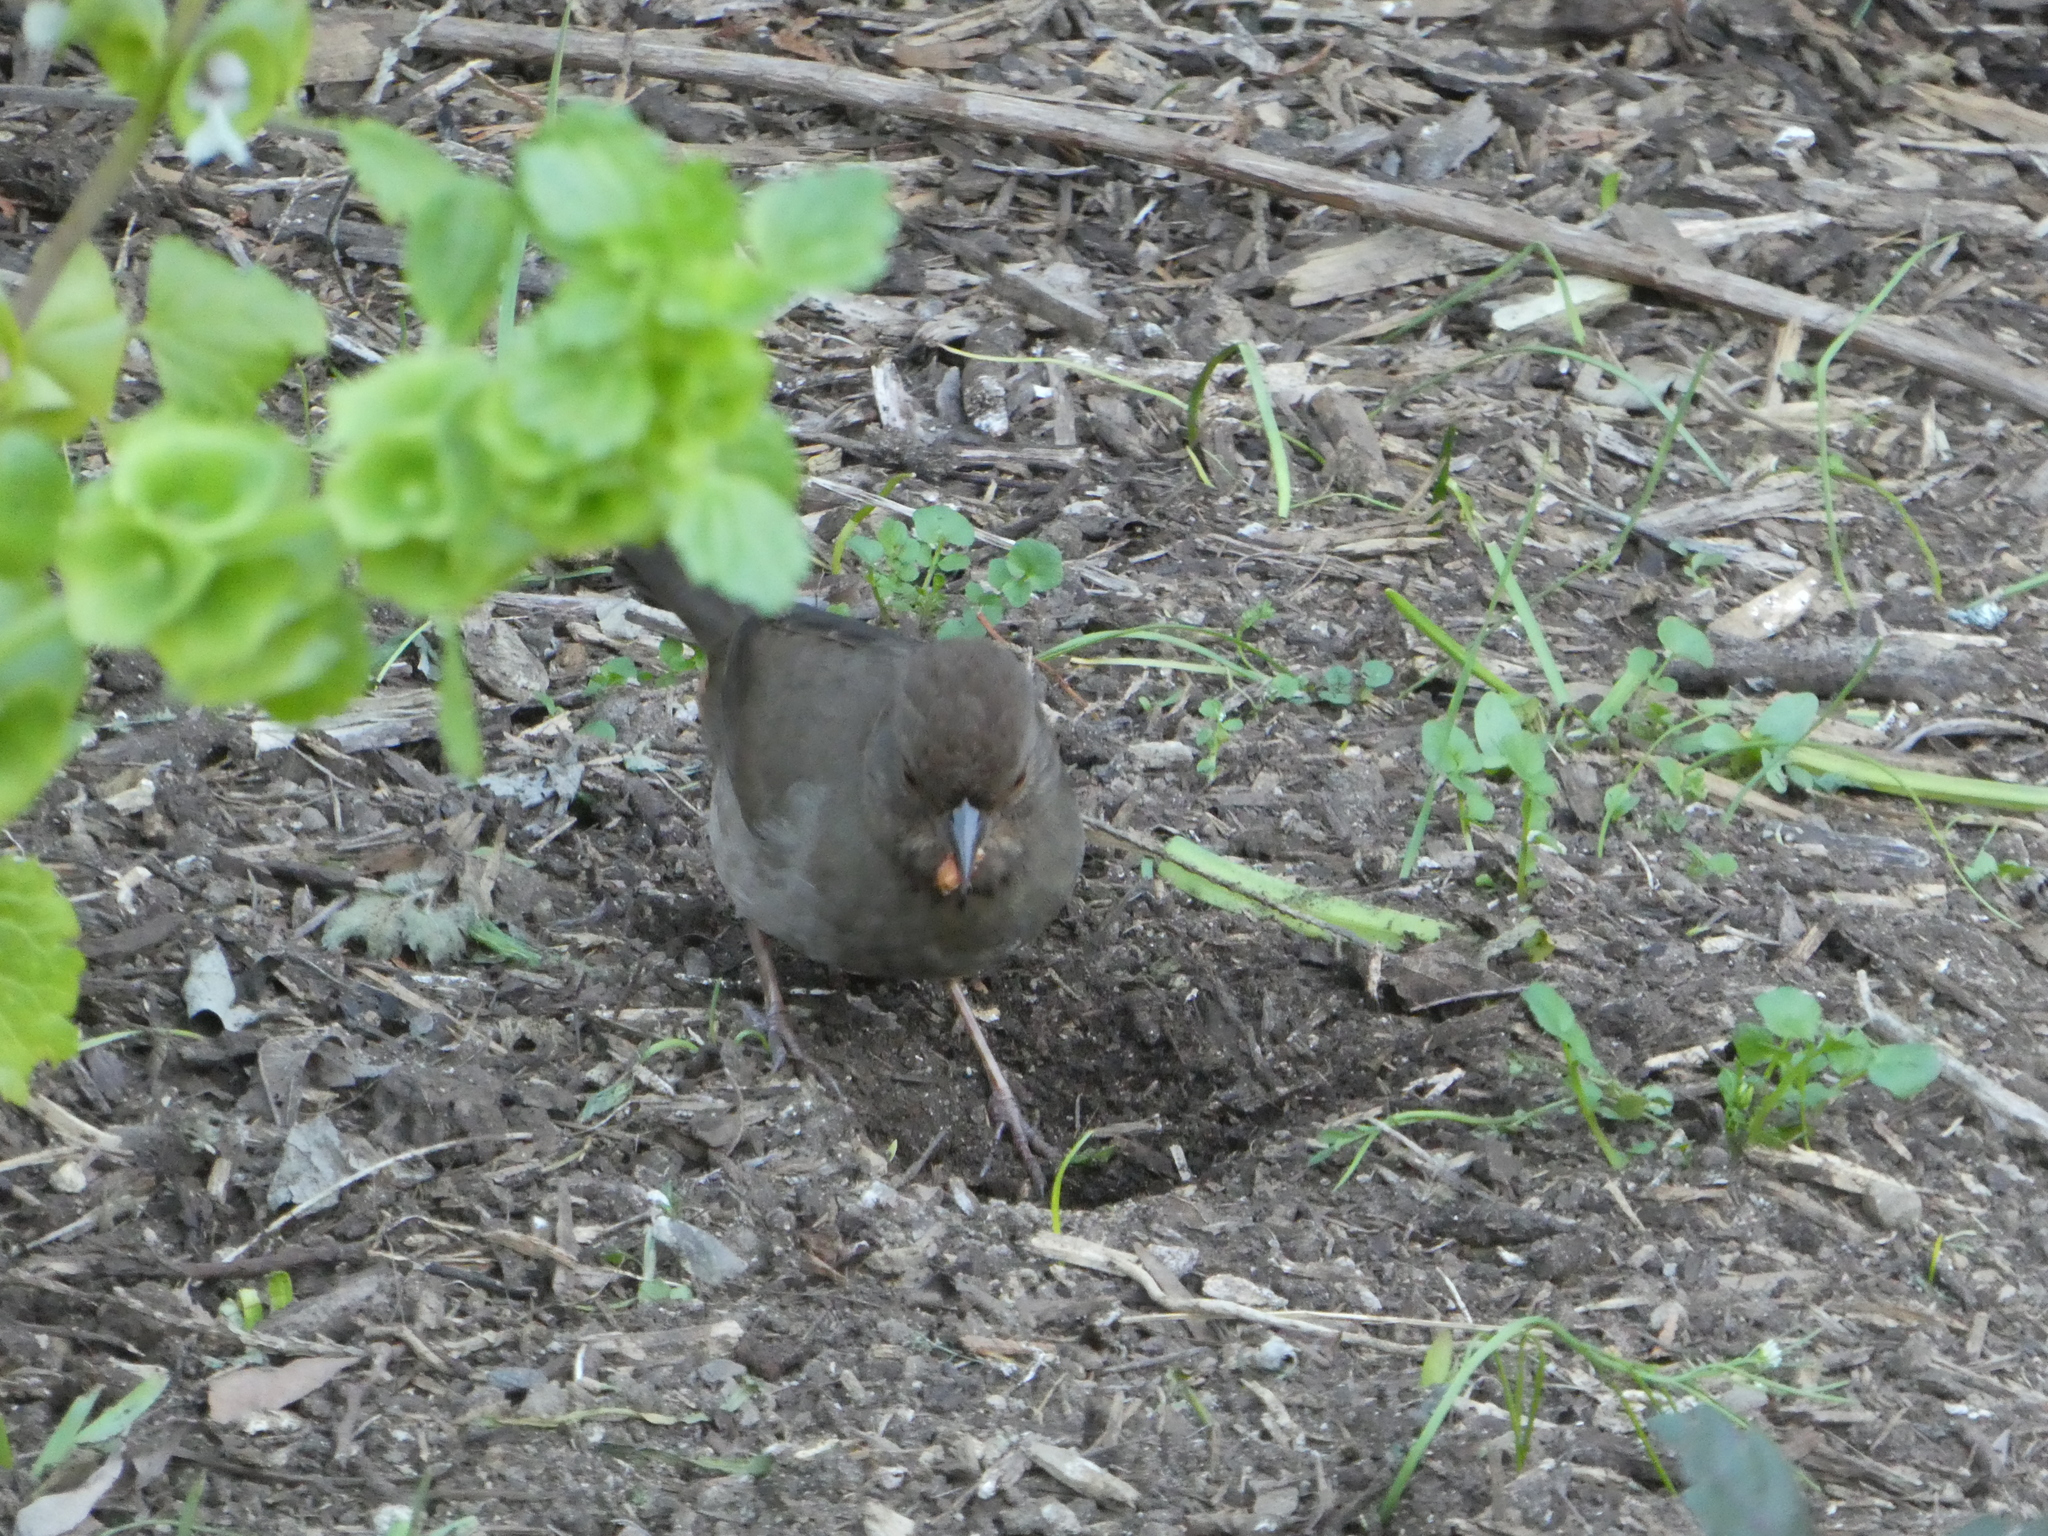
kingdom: Animalia
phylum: Chordata
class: Aves
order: Passeriformes
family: Passerellidae
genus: Melozone
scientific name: Melozone crissalis
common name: California towhee
